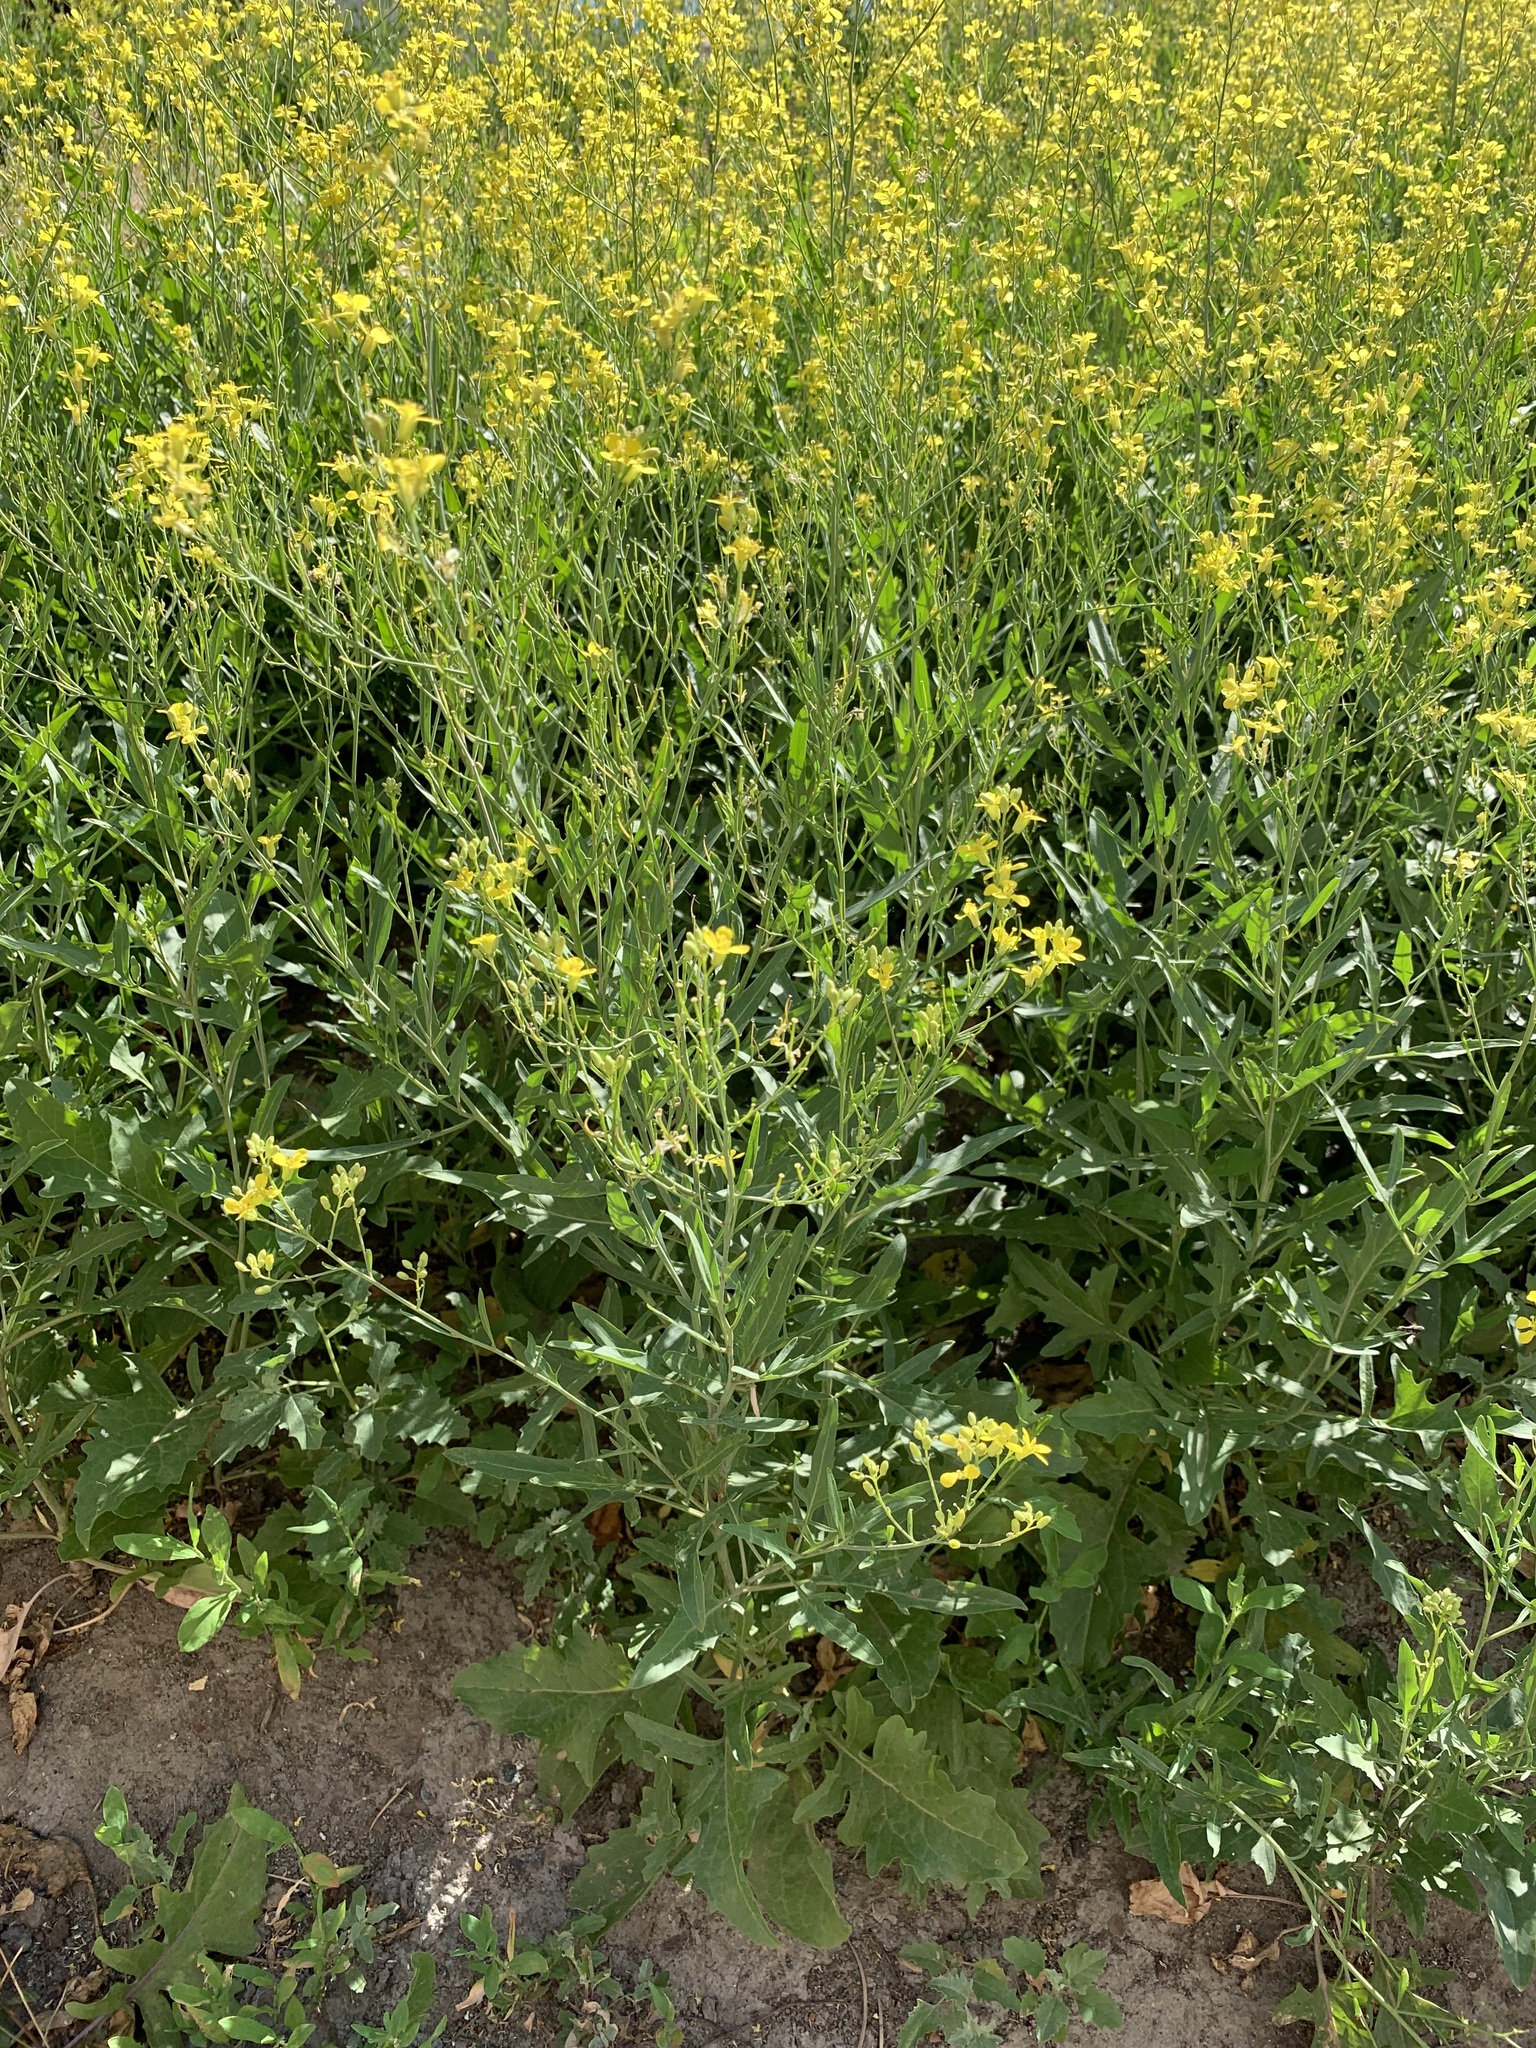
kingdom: Plantae
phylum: Tracheophyta
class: Magnoliopsida
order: Brassicales
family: Brassicaceae
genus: Sisymbrium
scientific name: Sisymbrium volgense
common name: Russian mustard
